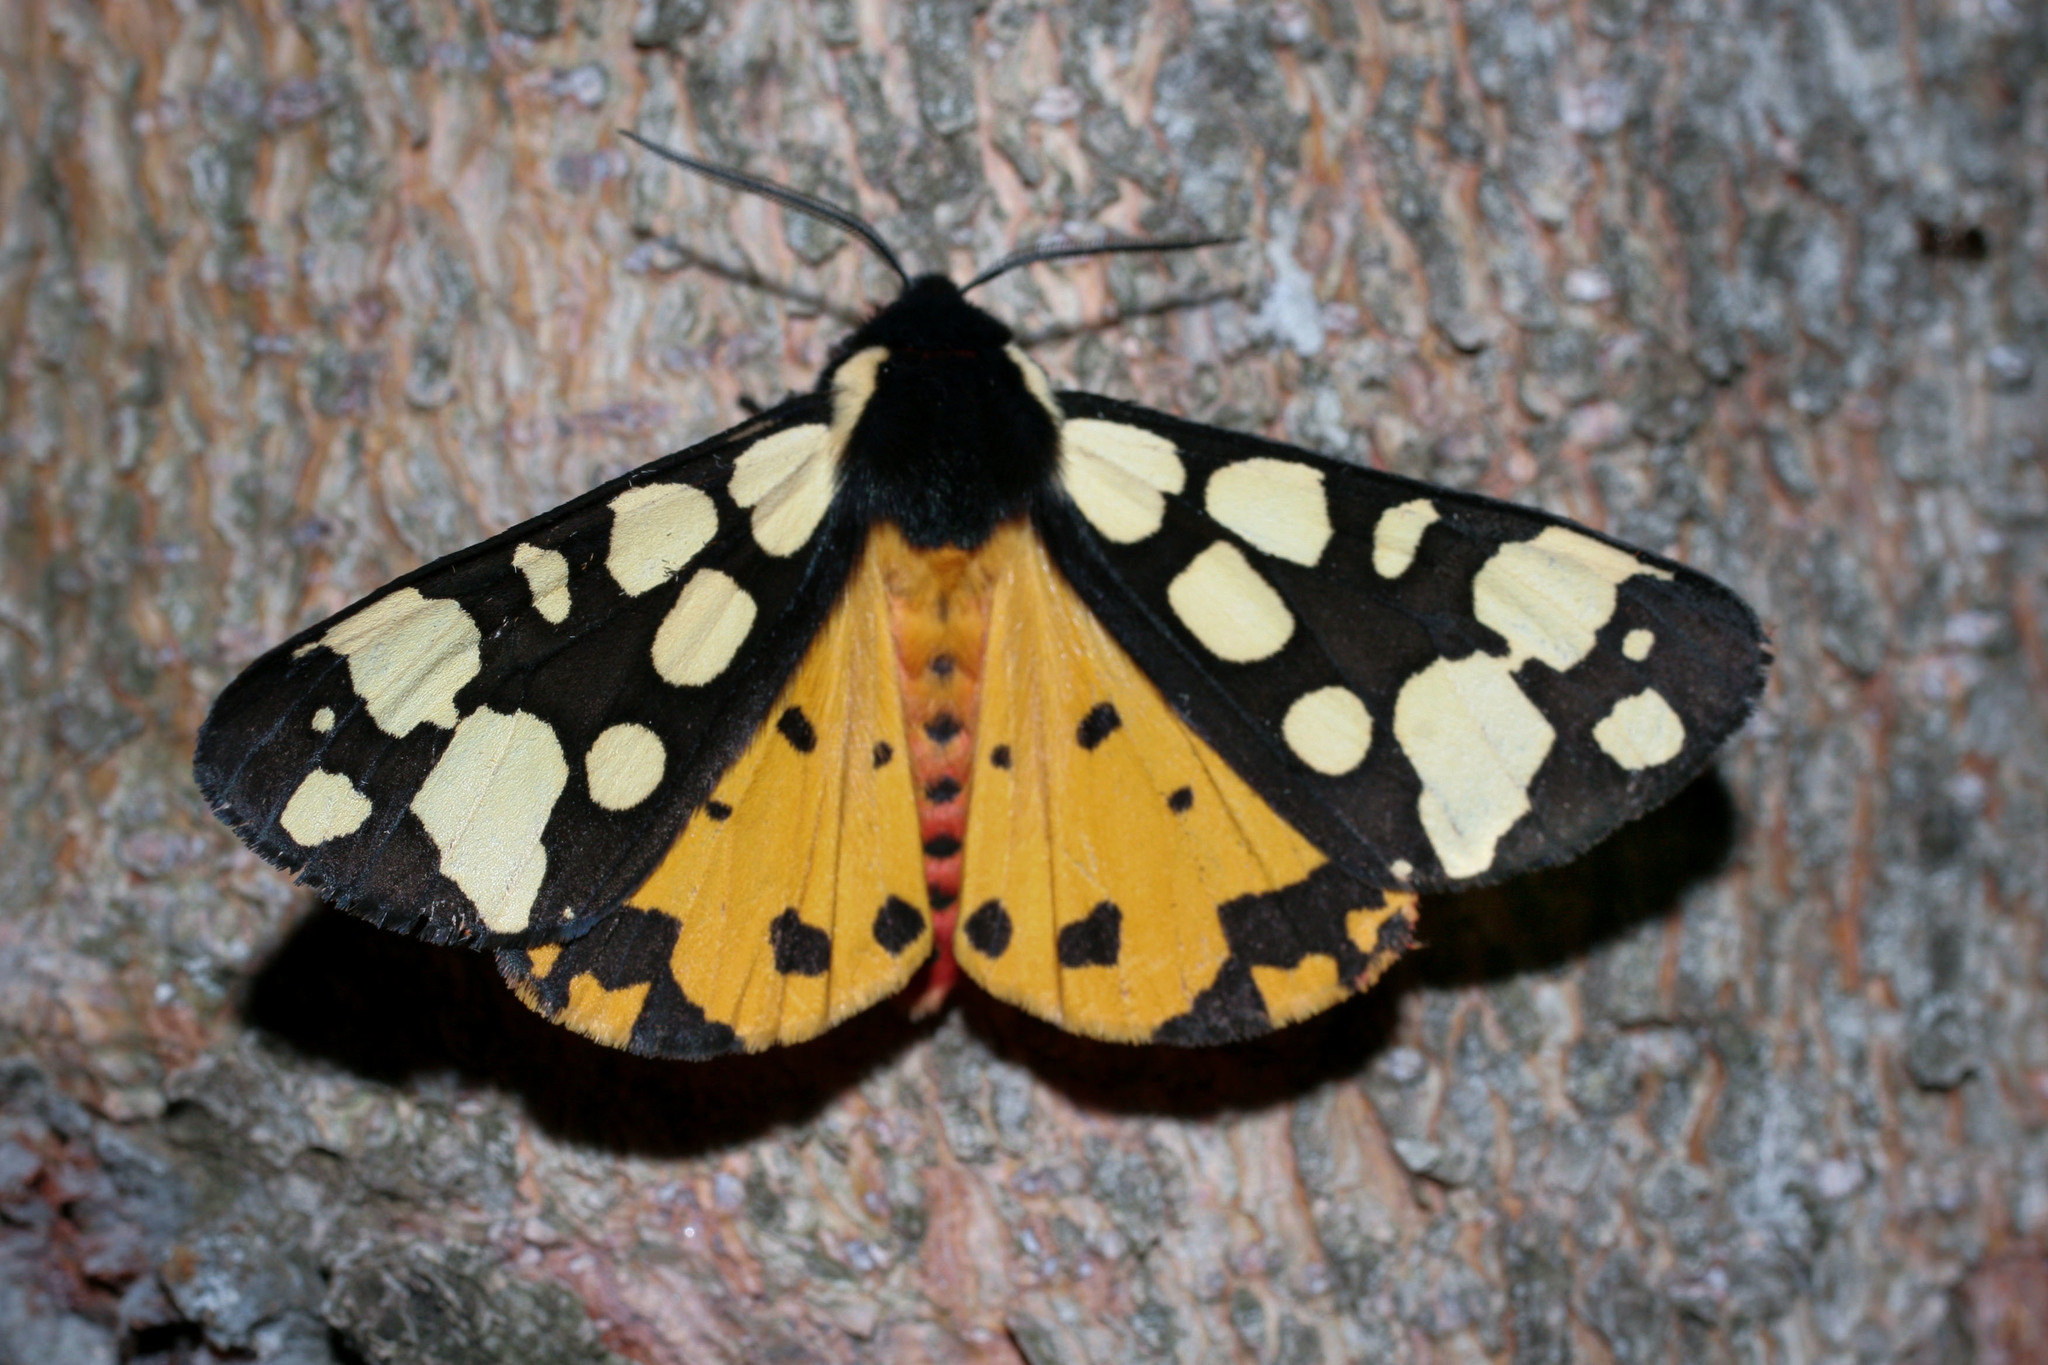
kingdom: Animalia
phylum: Arthropoda
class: Insecta
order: Lepidoptera
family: Erebidae
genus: Epicallia
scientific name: Epicallia villica
